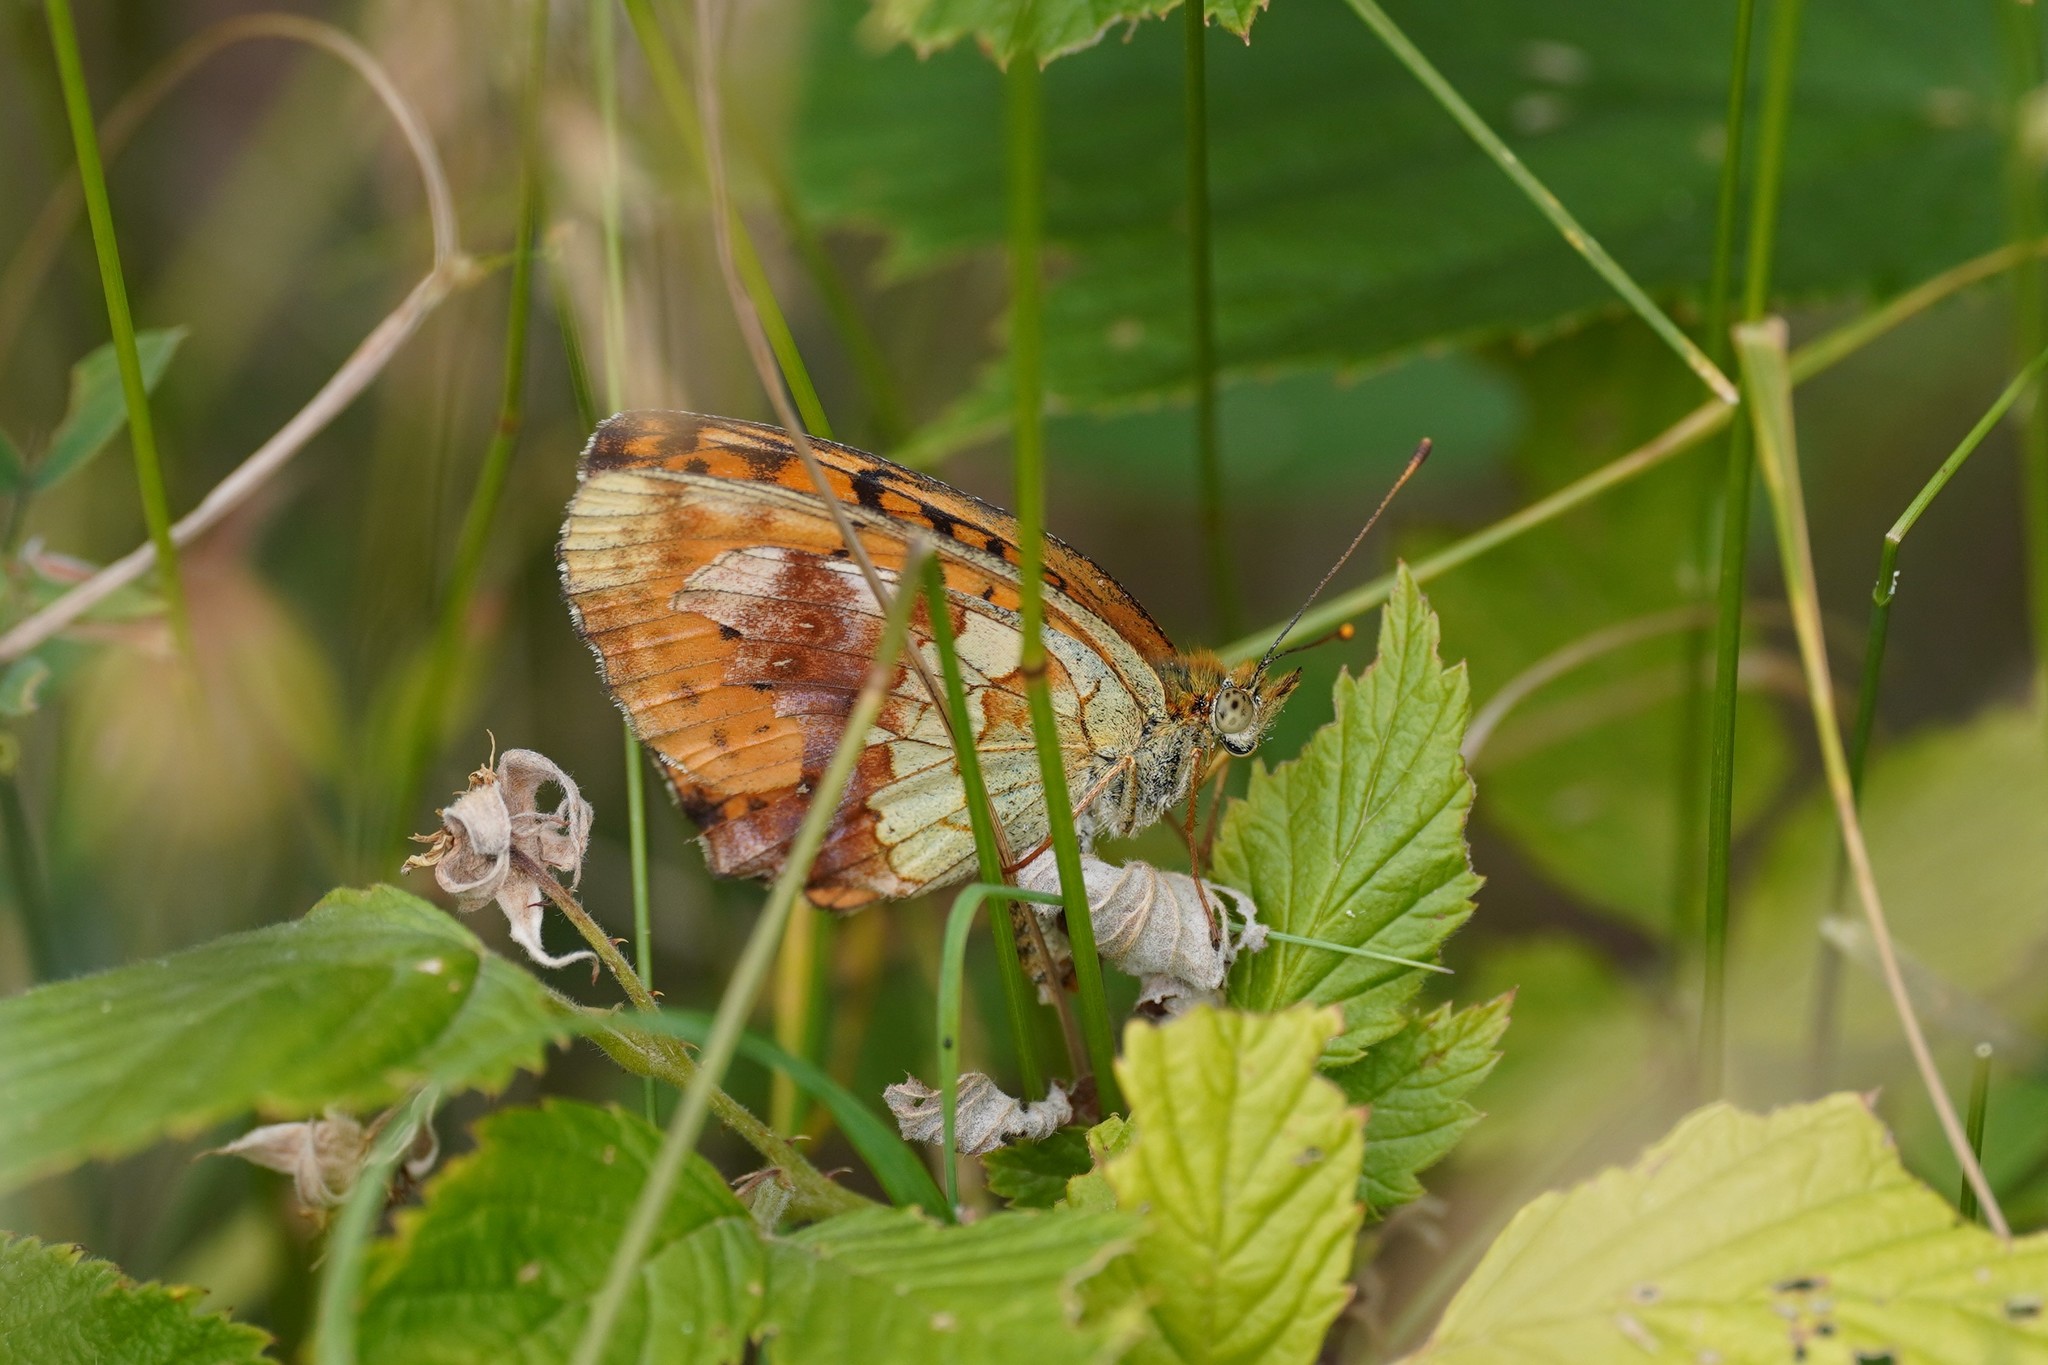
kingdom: Animalia
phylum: Arthropoda
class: Insecta
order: Lepidoptera
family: Nymphalidae
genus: Brenthis
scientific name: Brenthis daphne
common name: Marbled fritillary
